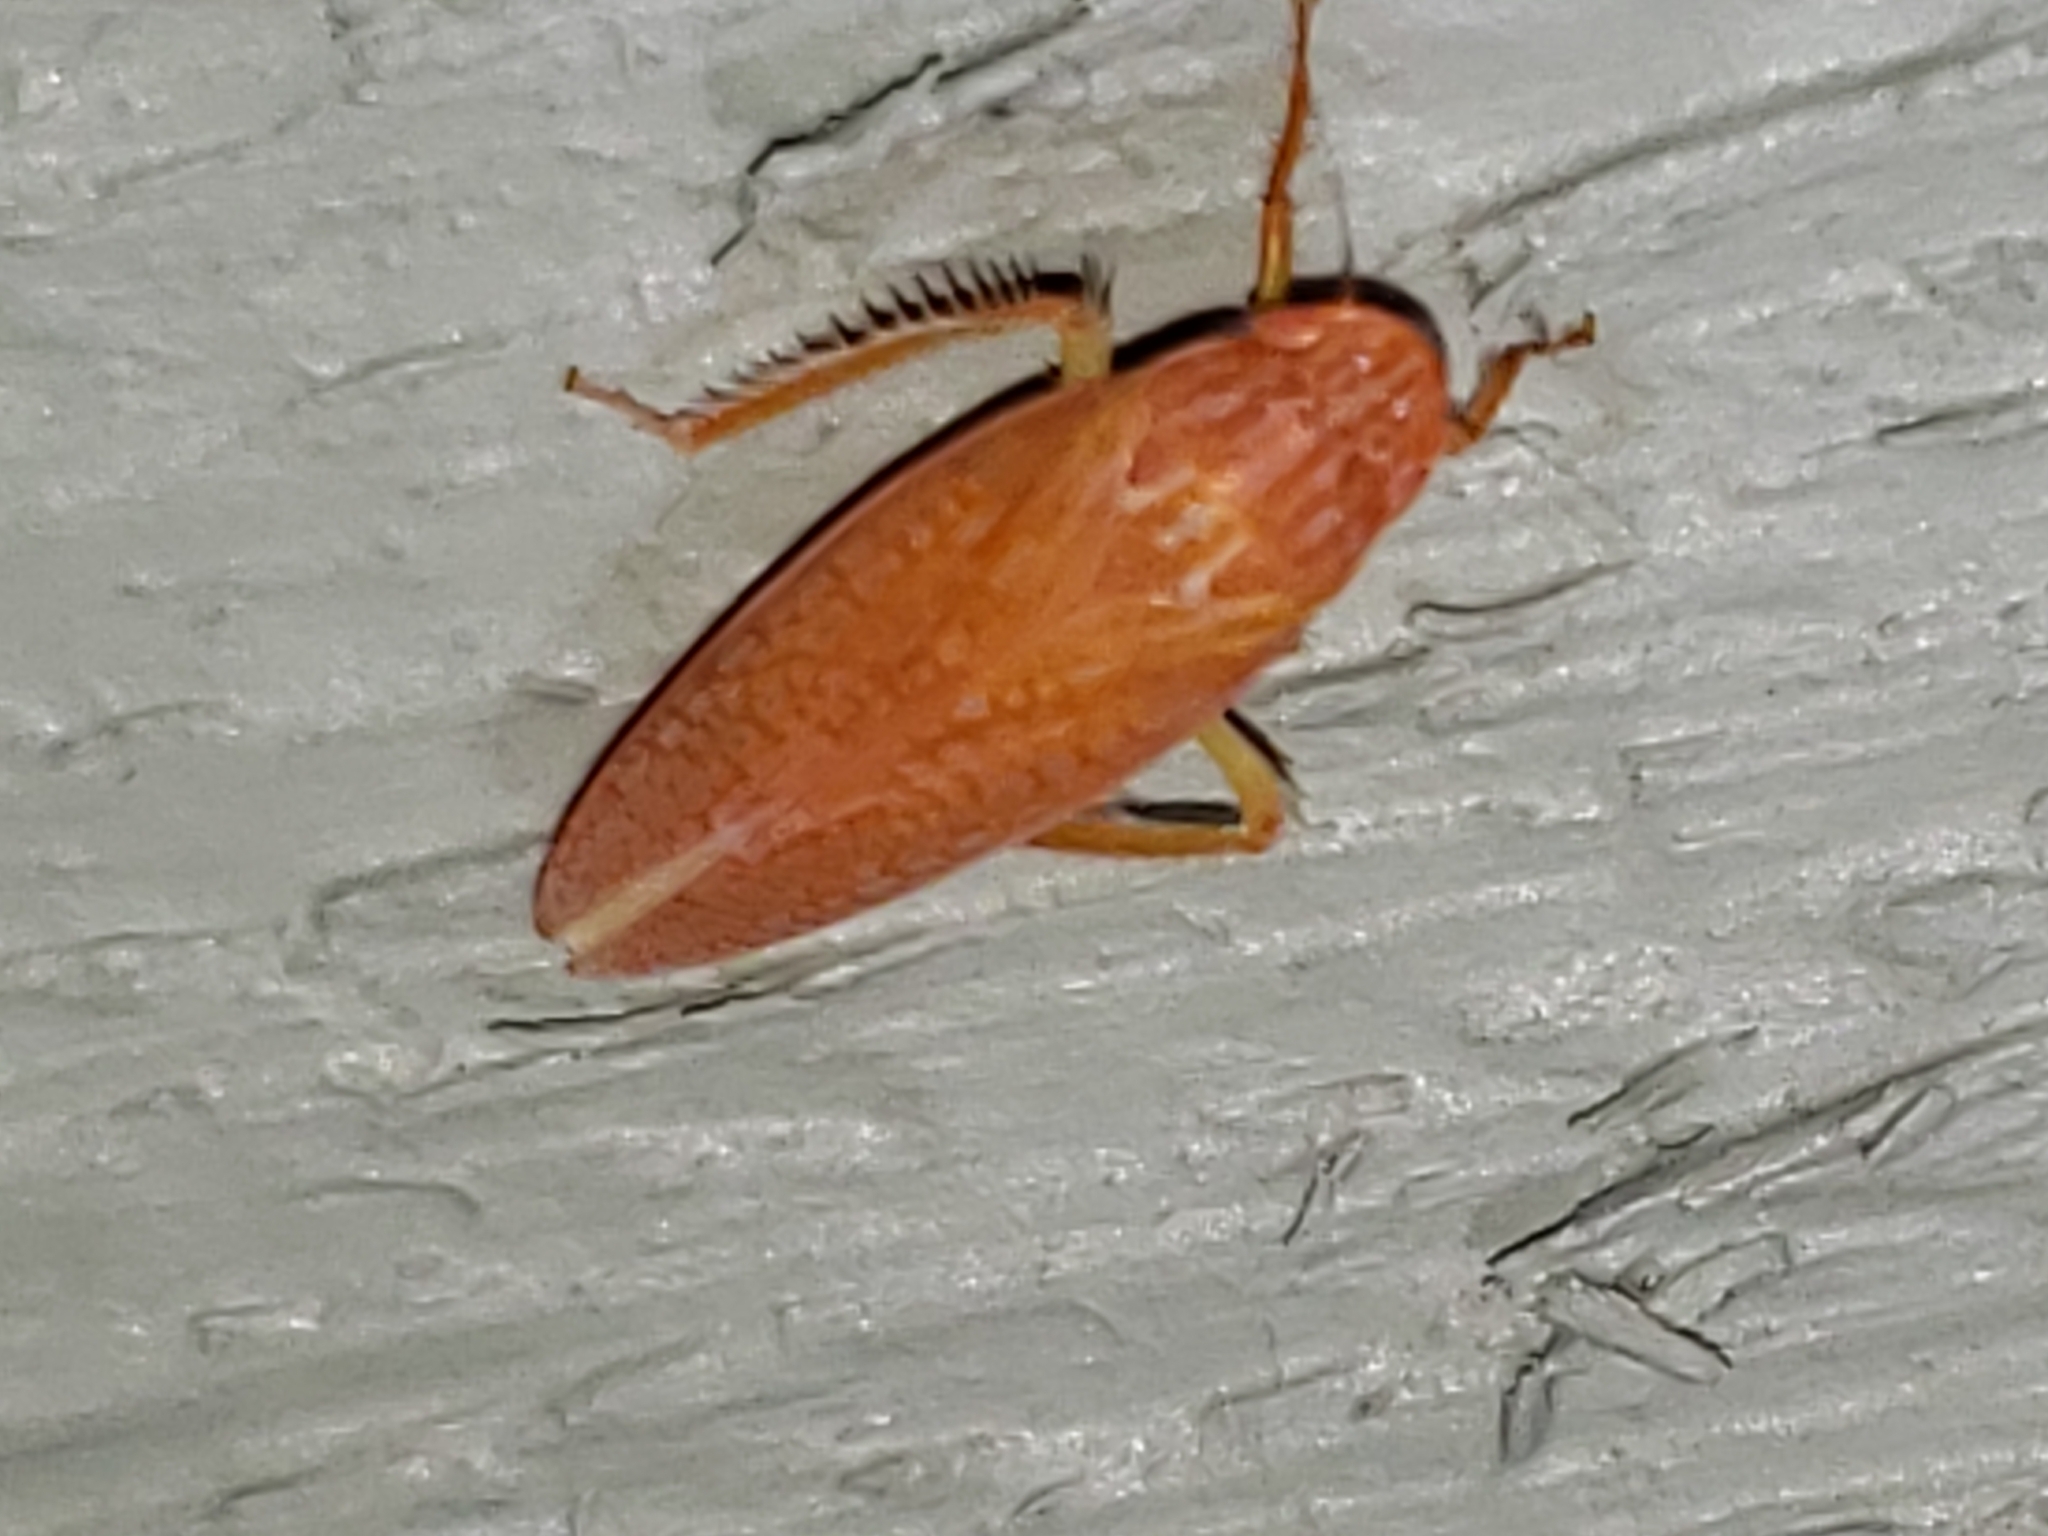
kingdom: Animalia
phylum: Arthropoda
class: Insecta
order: Hemiptera
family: Cicadellidae
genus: Gyponana
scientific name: Gyponana gladia
